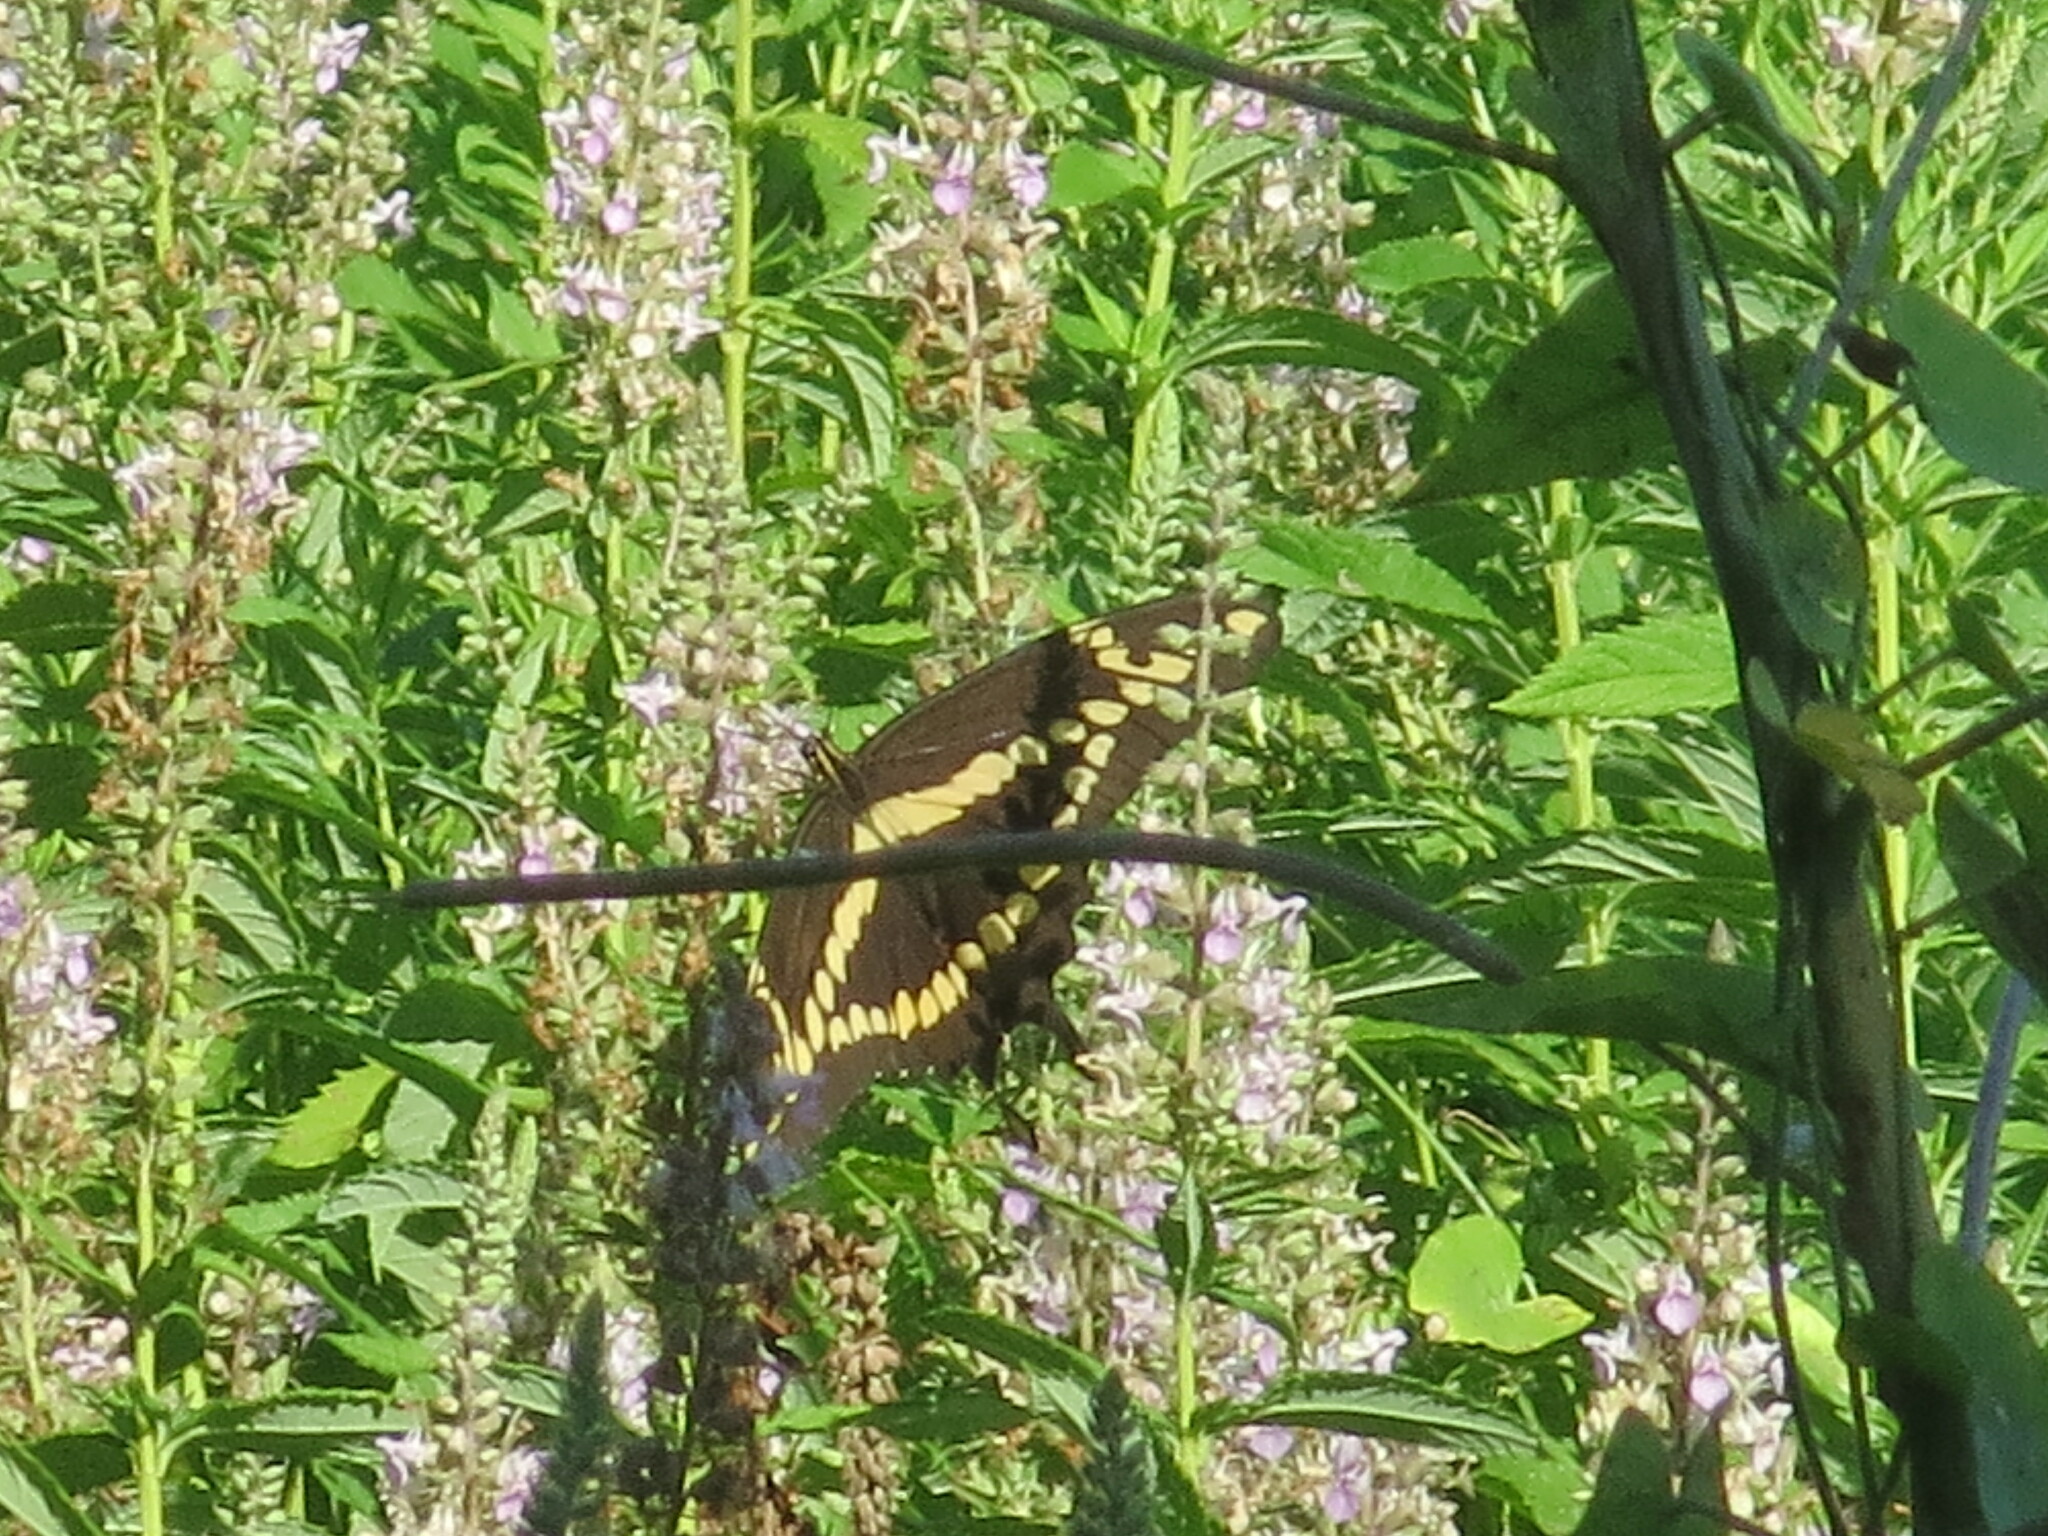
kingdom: Animalia
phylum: Arthropoda
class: Insecta
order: Lepidoptera
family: Papilionidae
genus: Papilio
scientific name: Papilio rumiko
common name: Western giant swallowtail
